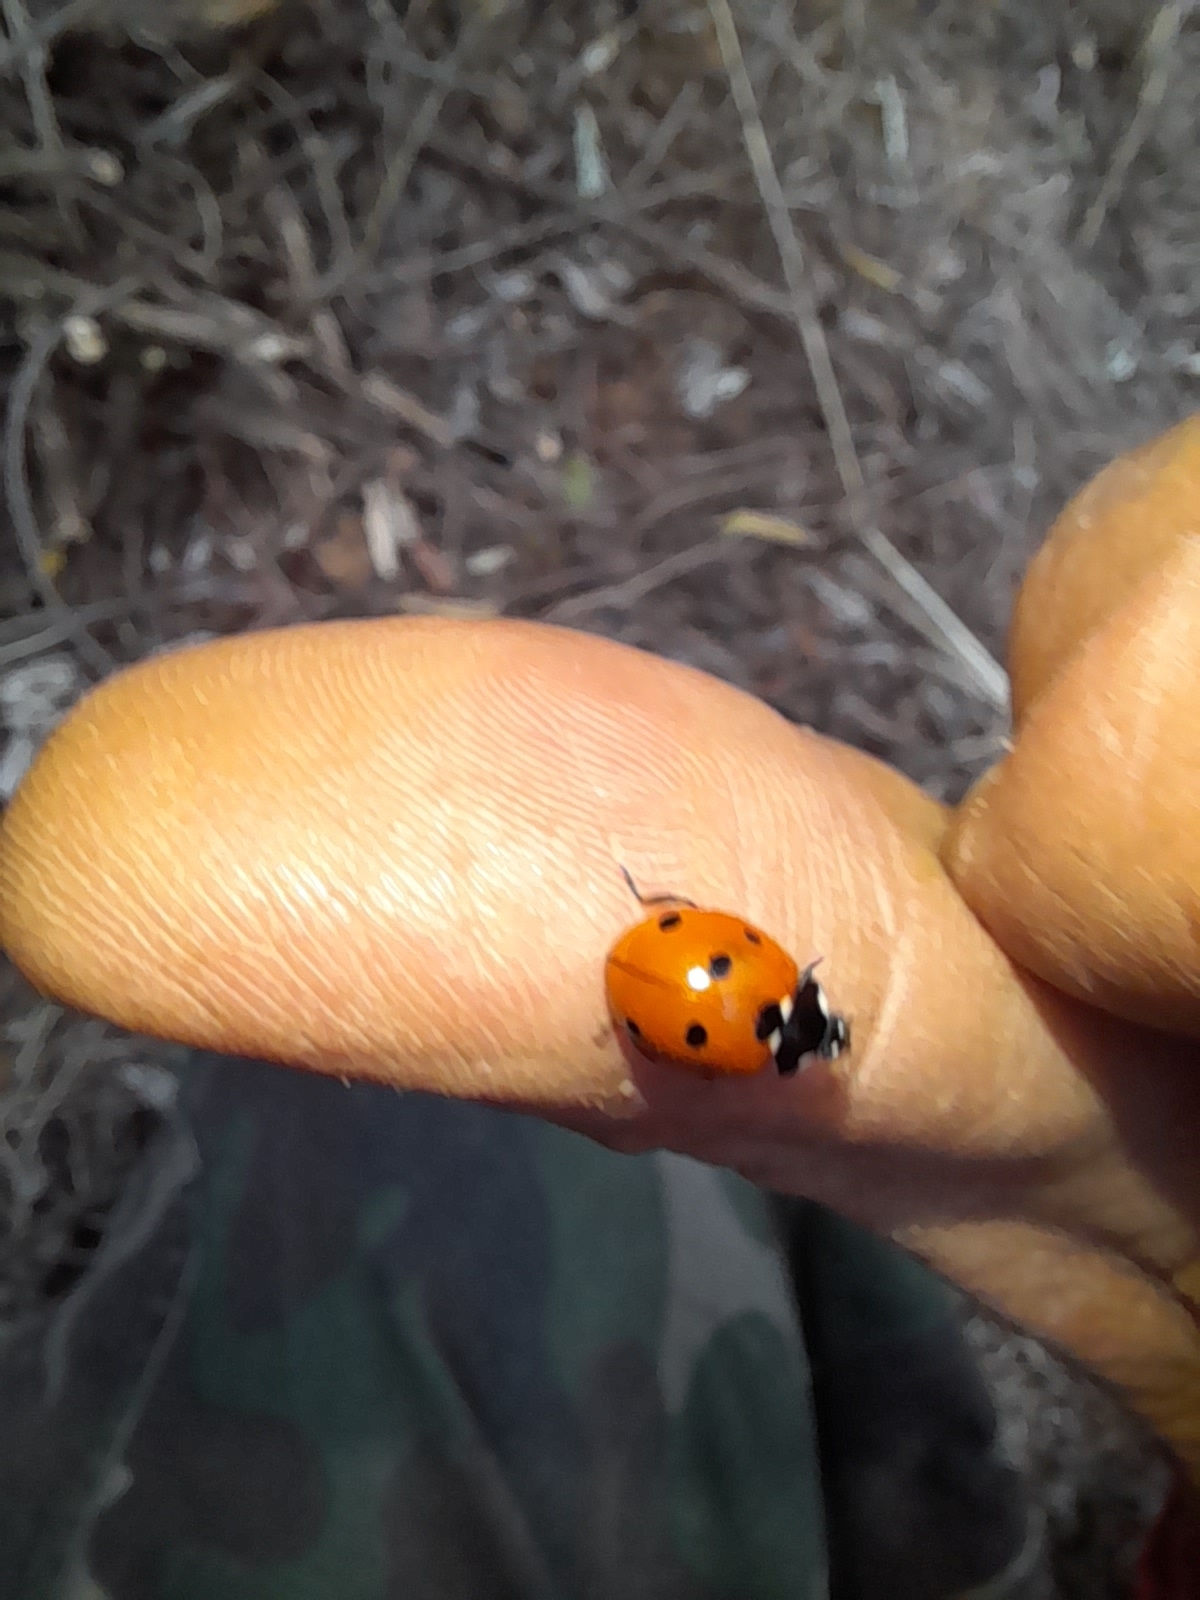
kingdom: Animalia
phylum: Arthropoda
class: Insecta
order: Coleoptera
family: Coccinellidae
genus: Coccinella
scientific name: Coccinella septempunctata
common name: Sevenspotted lady beetle
